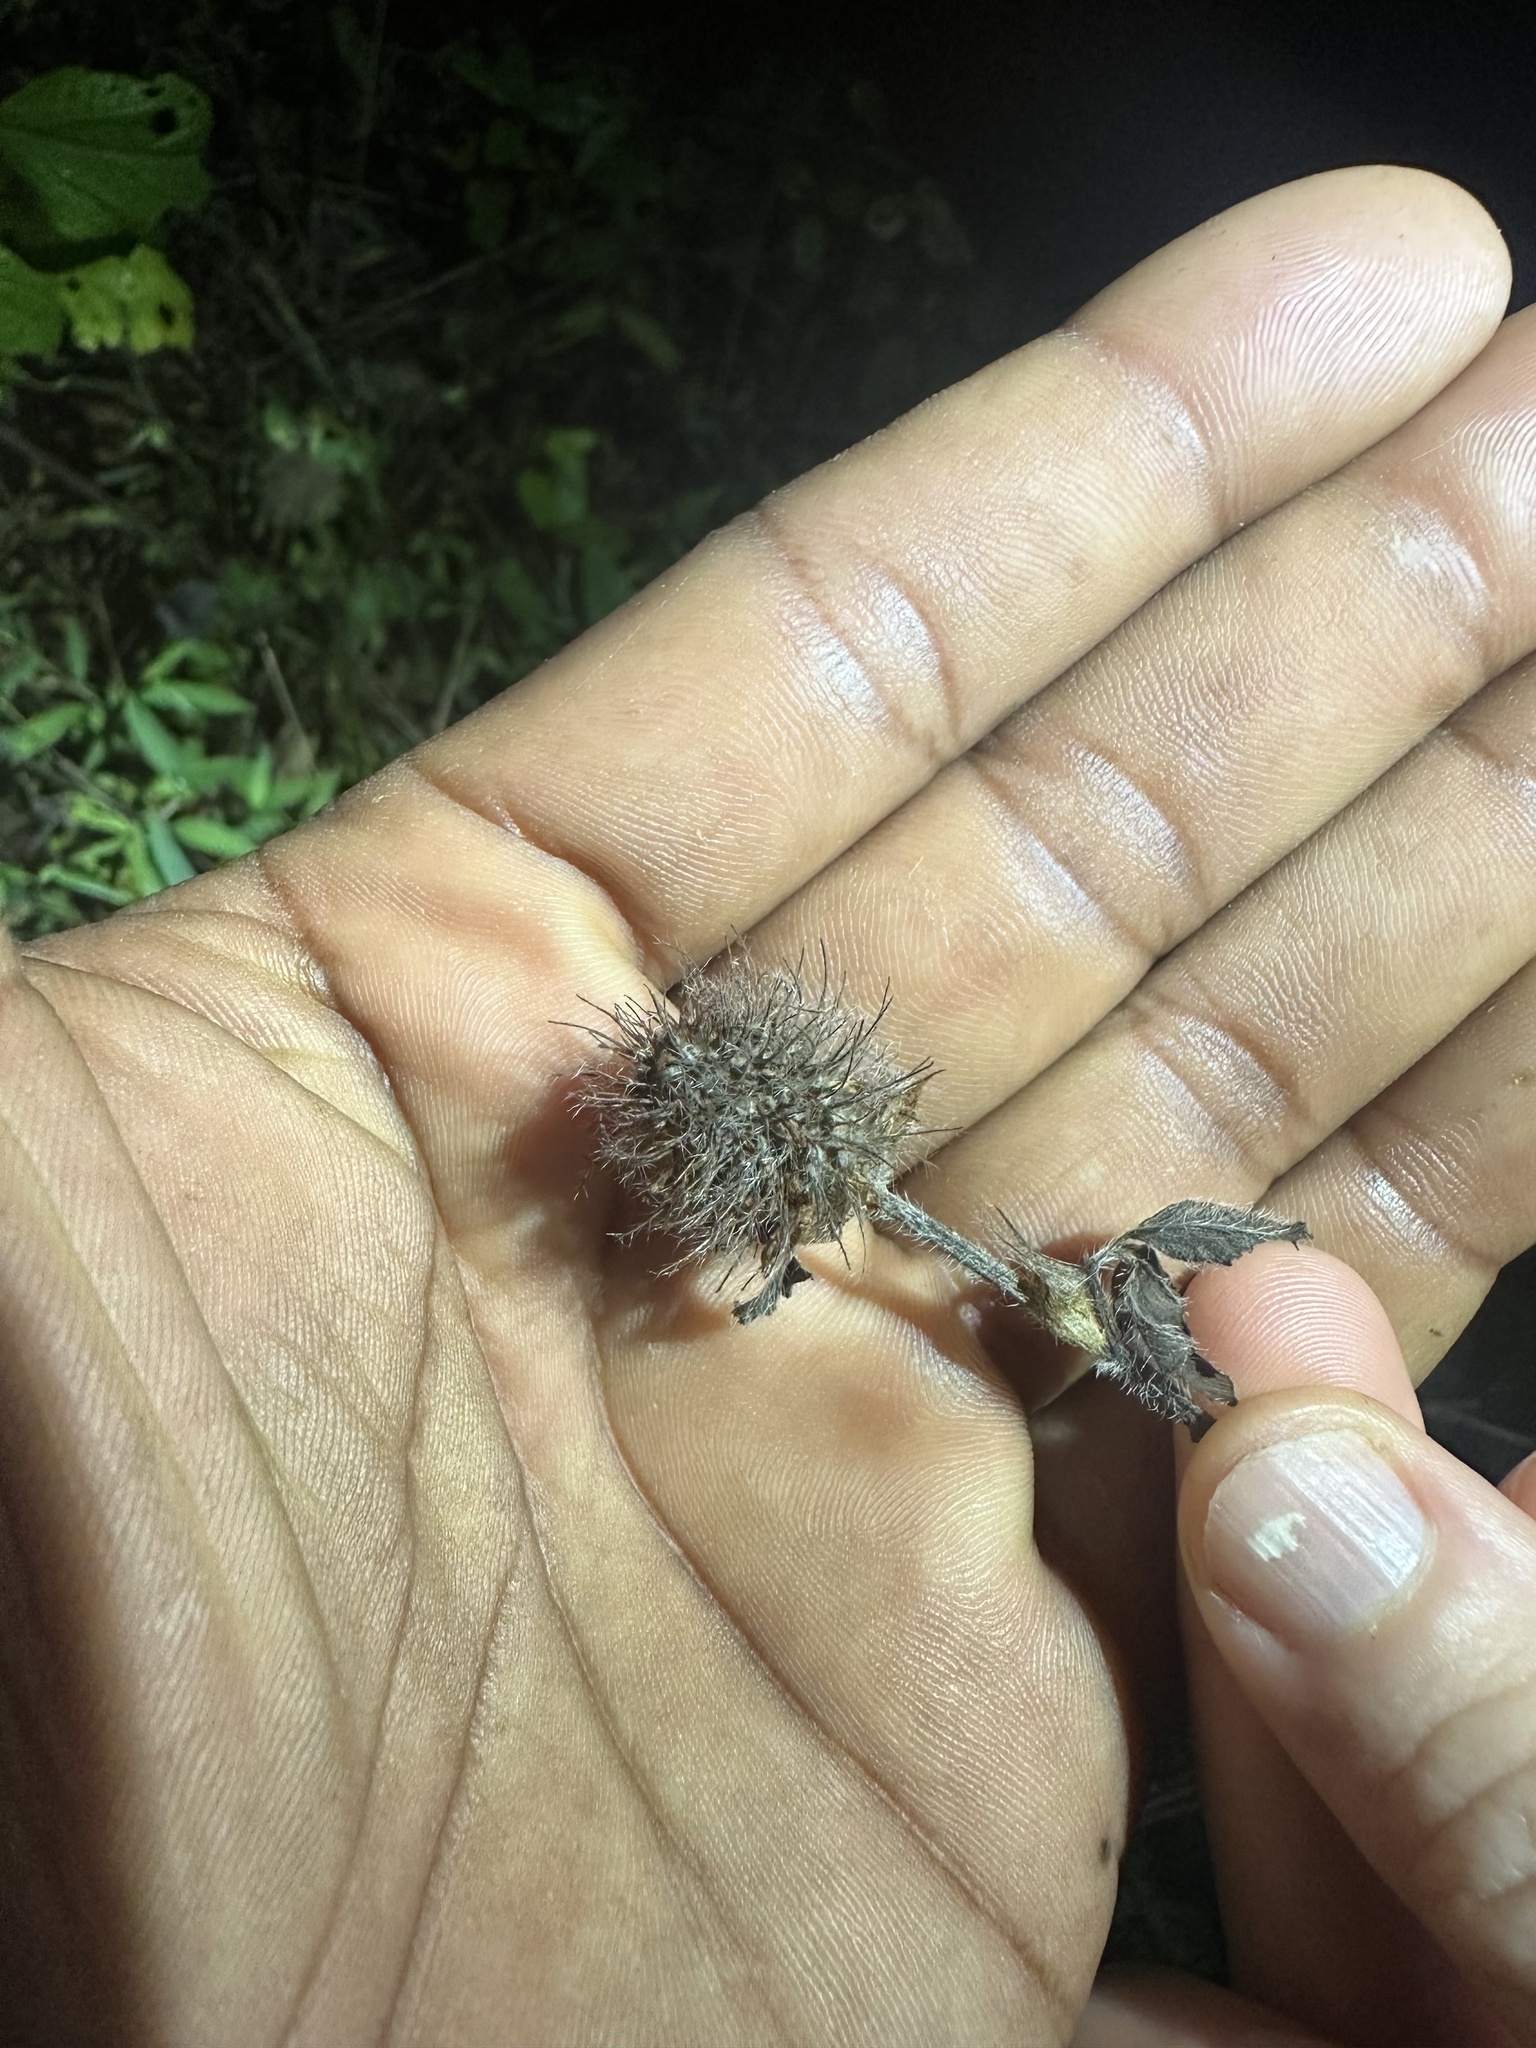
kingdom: Plantae
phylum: Tracheophyta
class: Magnoliopsida
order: Fabales
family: Fabaceae
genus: Trifolium
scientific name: Trifolium lappaceum
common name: Bur clover
